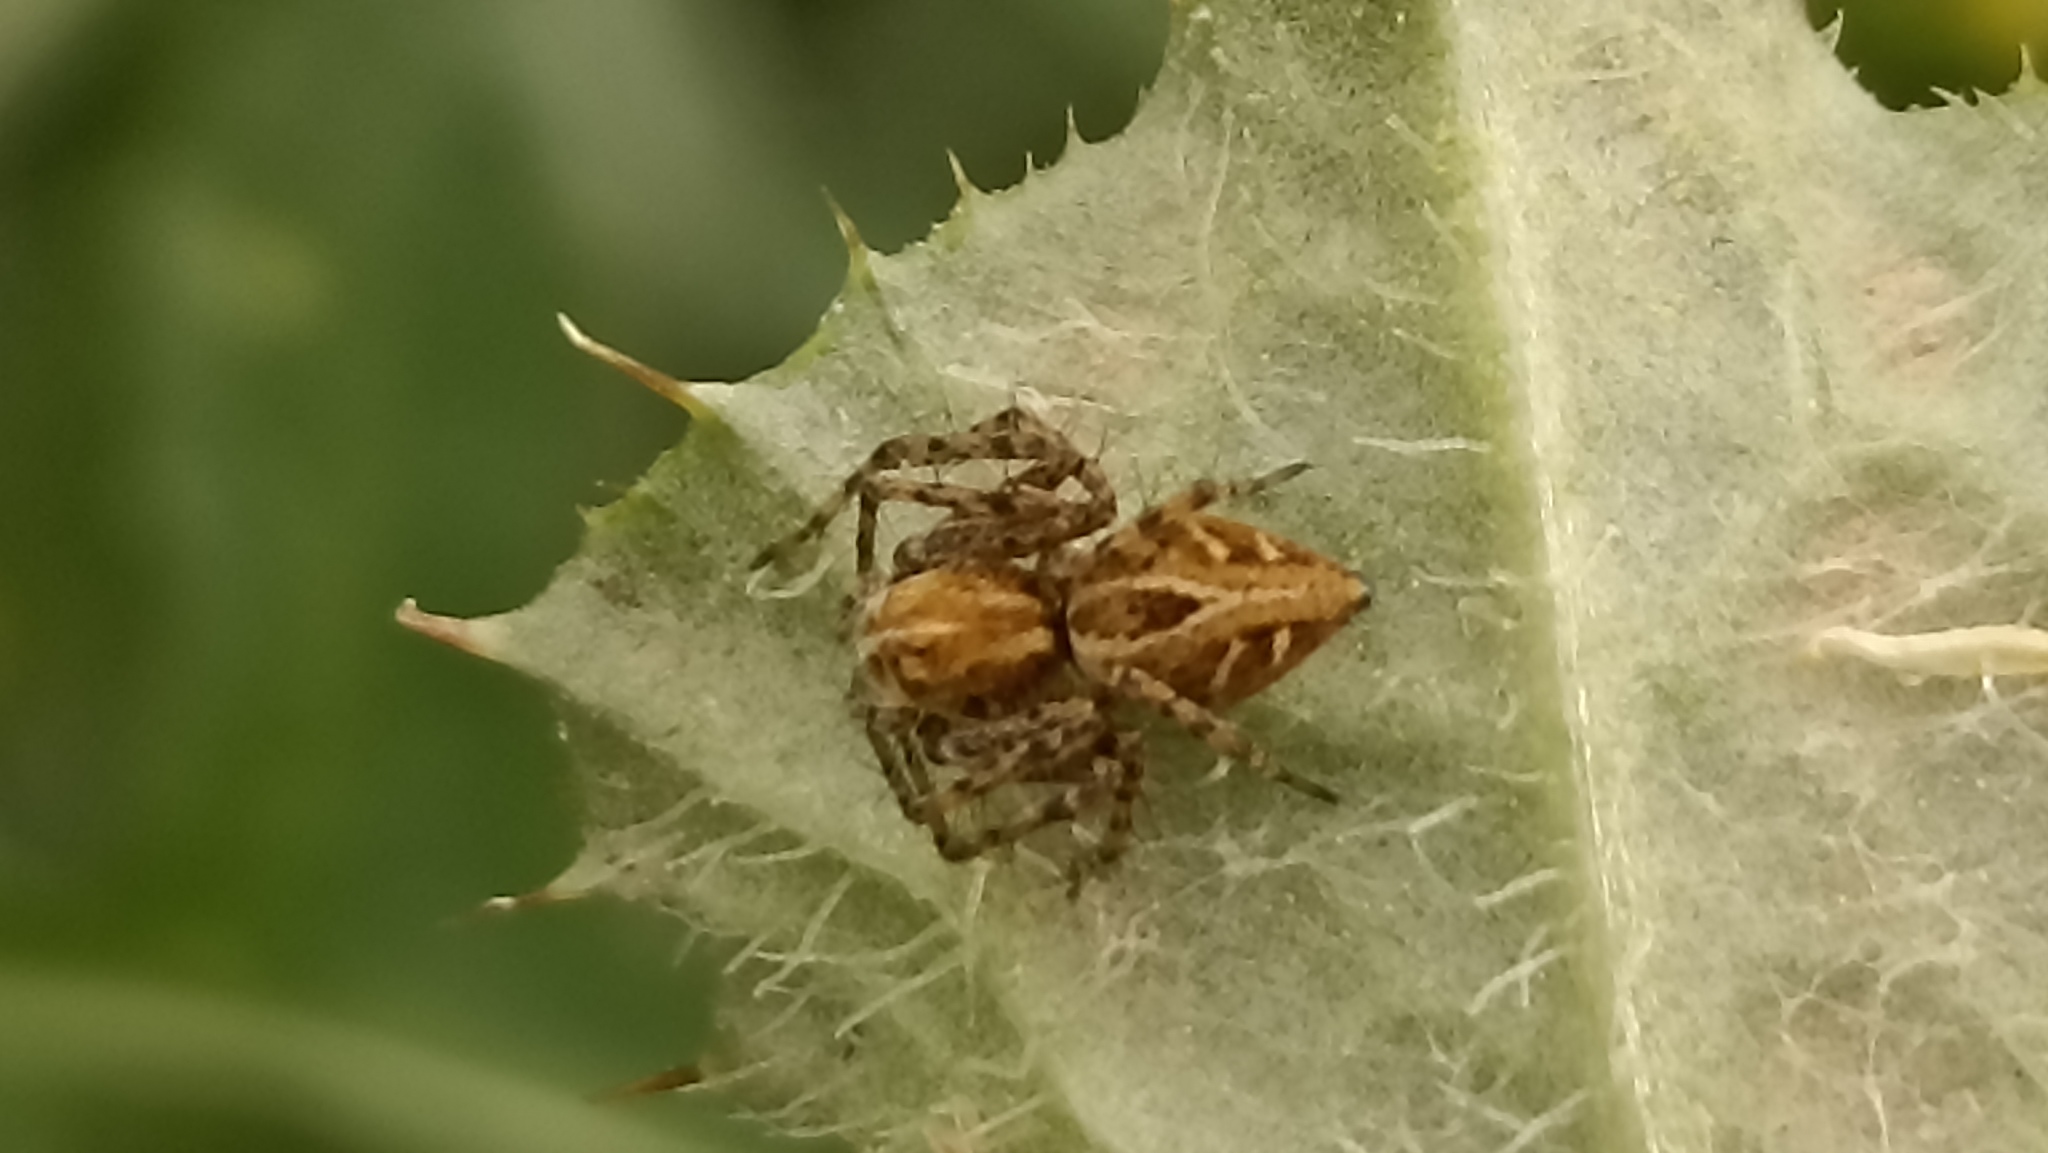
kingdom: Animalia
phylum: Arthropoda
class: Arachnida
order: Araneae
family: Oxyopidae
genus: Oxyopes
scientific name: Oxyopes heterophthalmus
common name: Lynx spider
